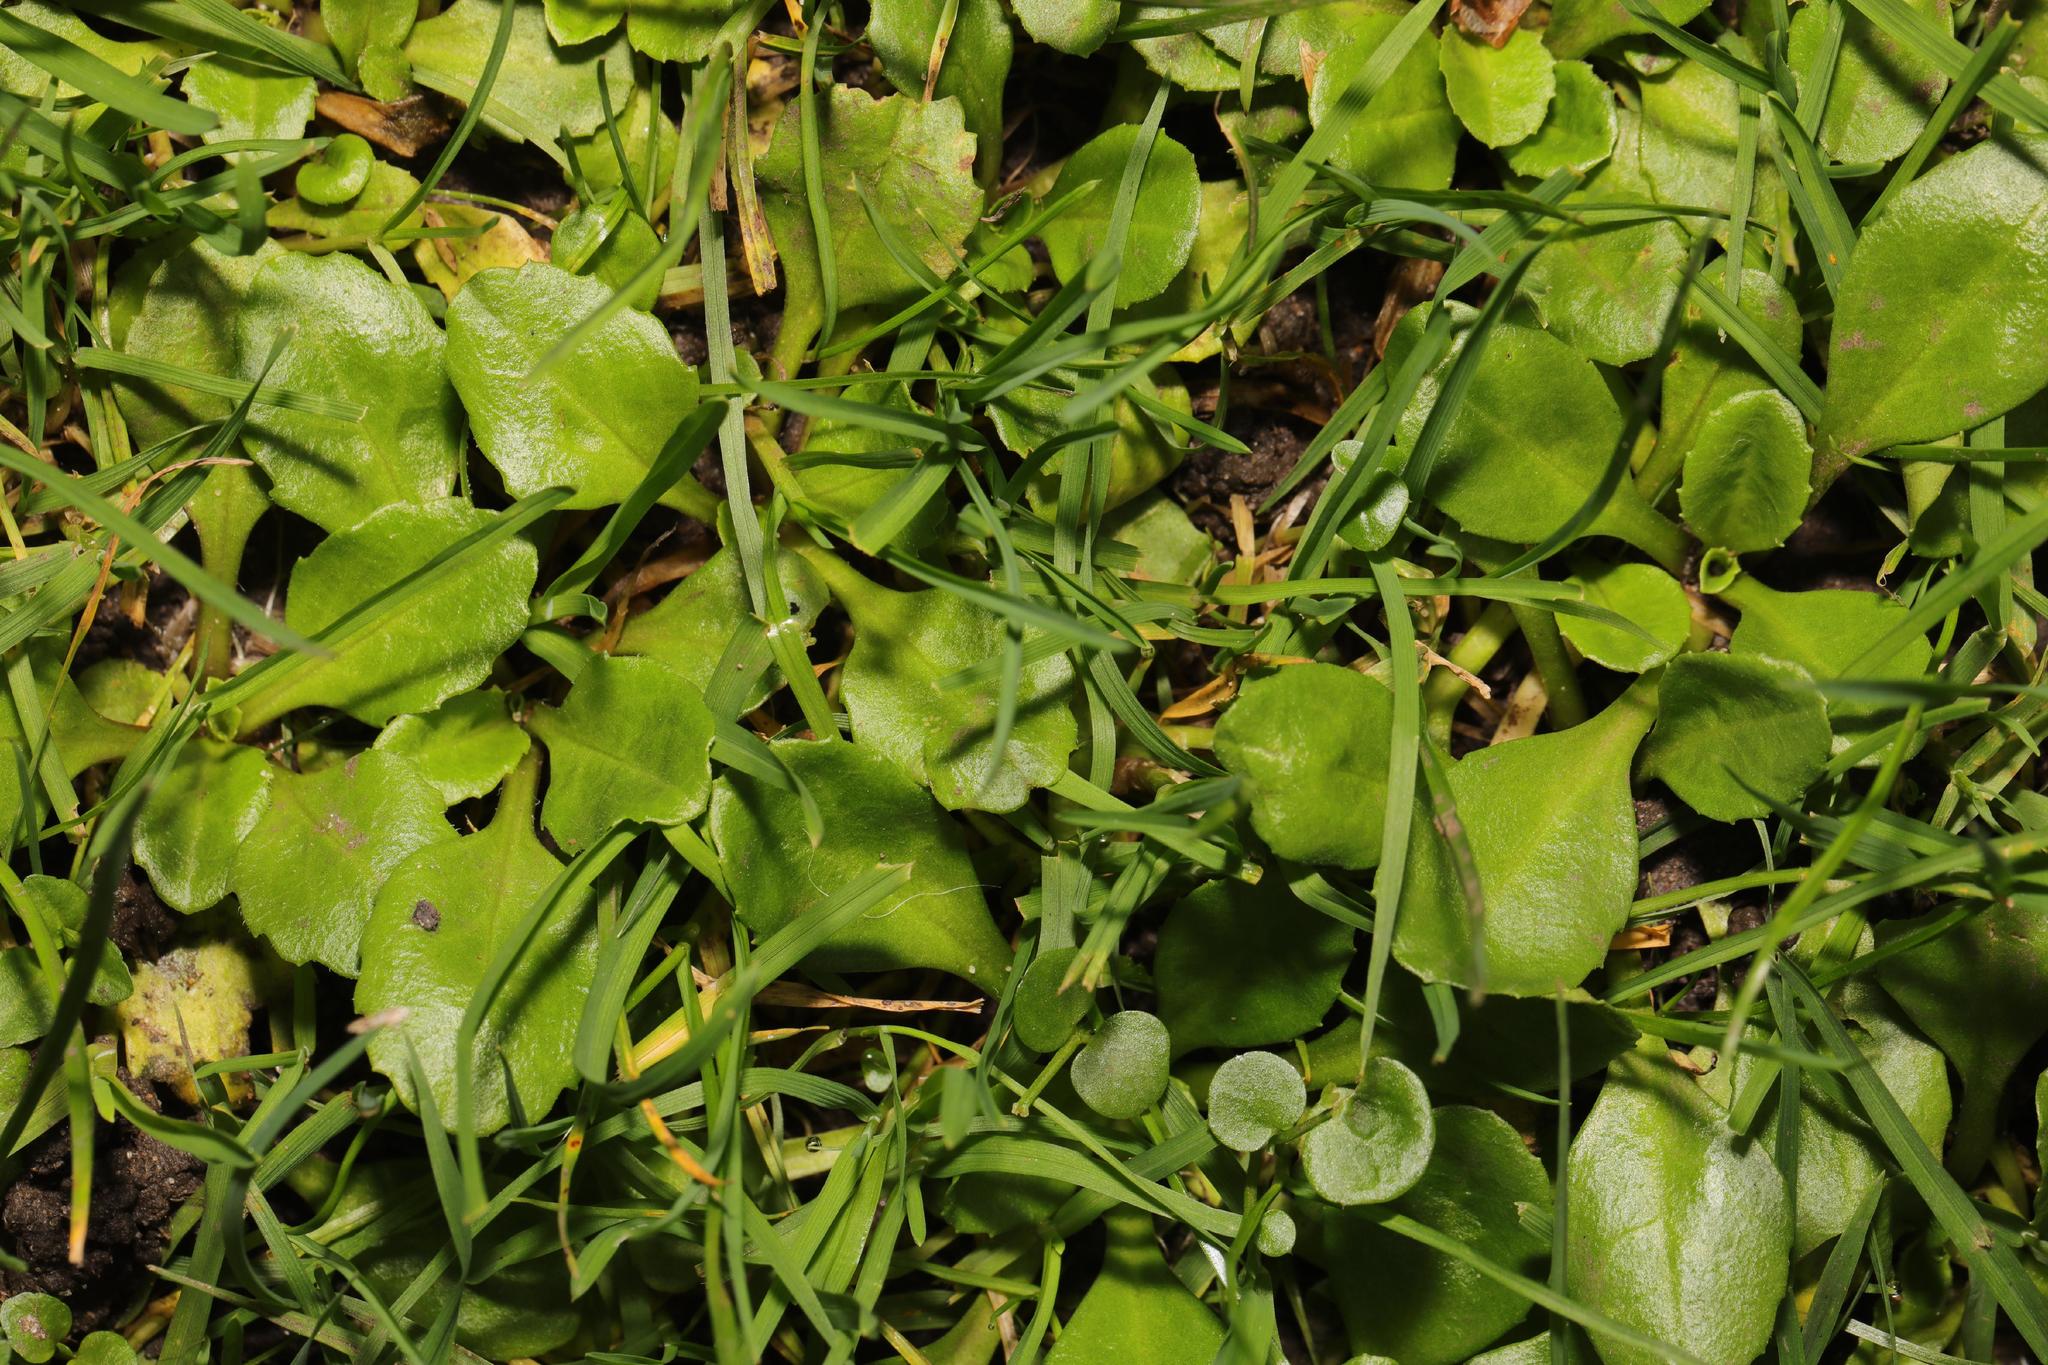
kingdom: Plantae
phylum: Tracheophyta
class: Magnoliopsida
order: Asterales
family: Asteraceae
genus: Bellis
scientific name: Bellis perennis
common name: Lawndaisy
